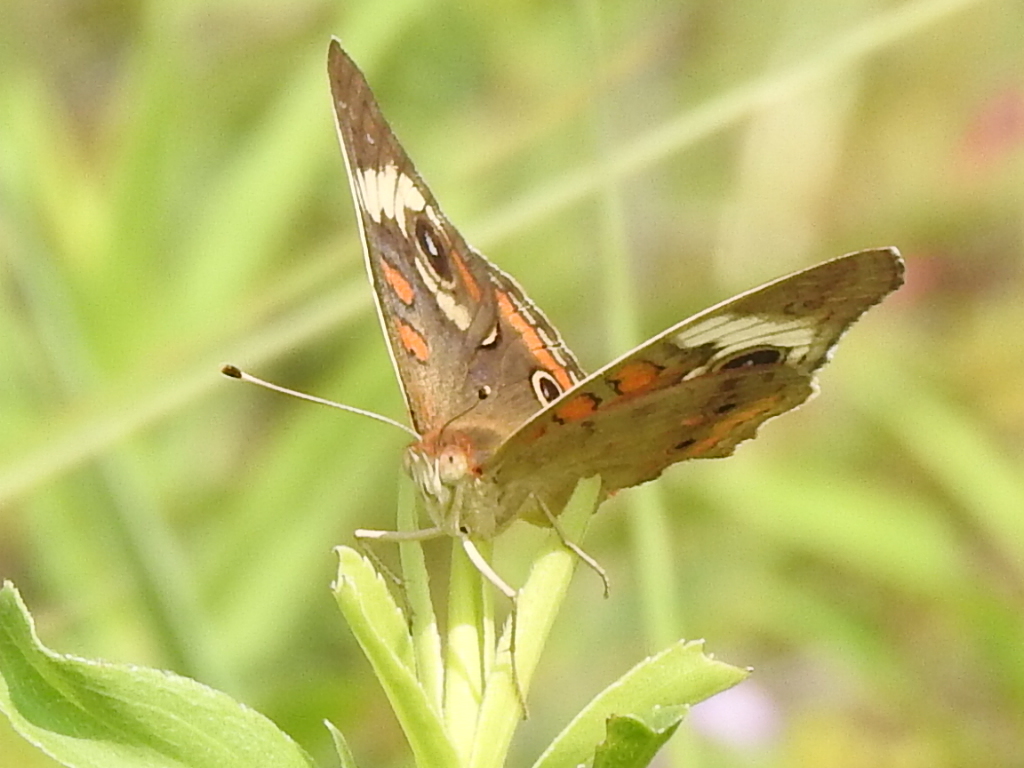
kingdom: Animalia
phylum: Arthropoda
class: Insecta
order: Lepidoptera
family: Nymphalidae
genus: Junonia
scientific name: Junonia coenia
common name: Common buckeye
